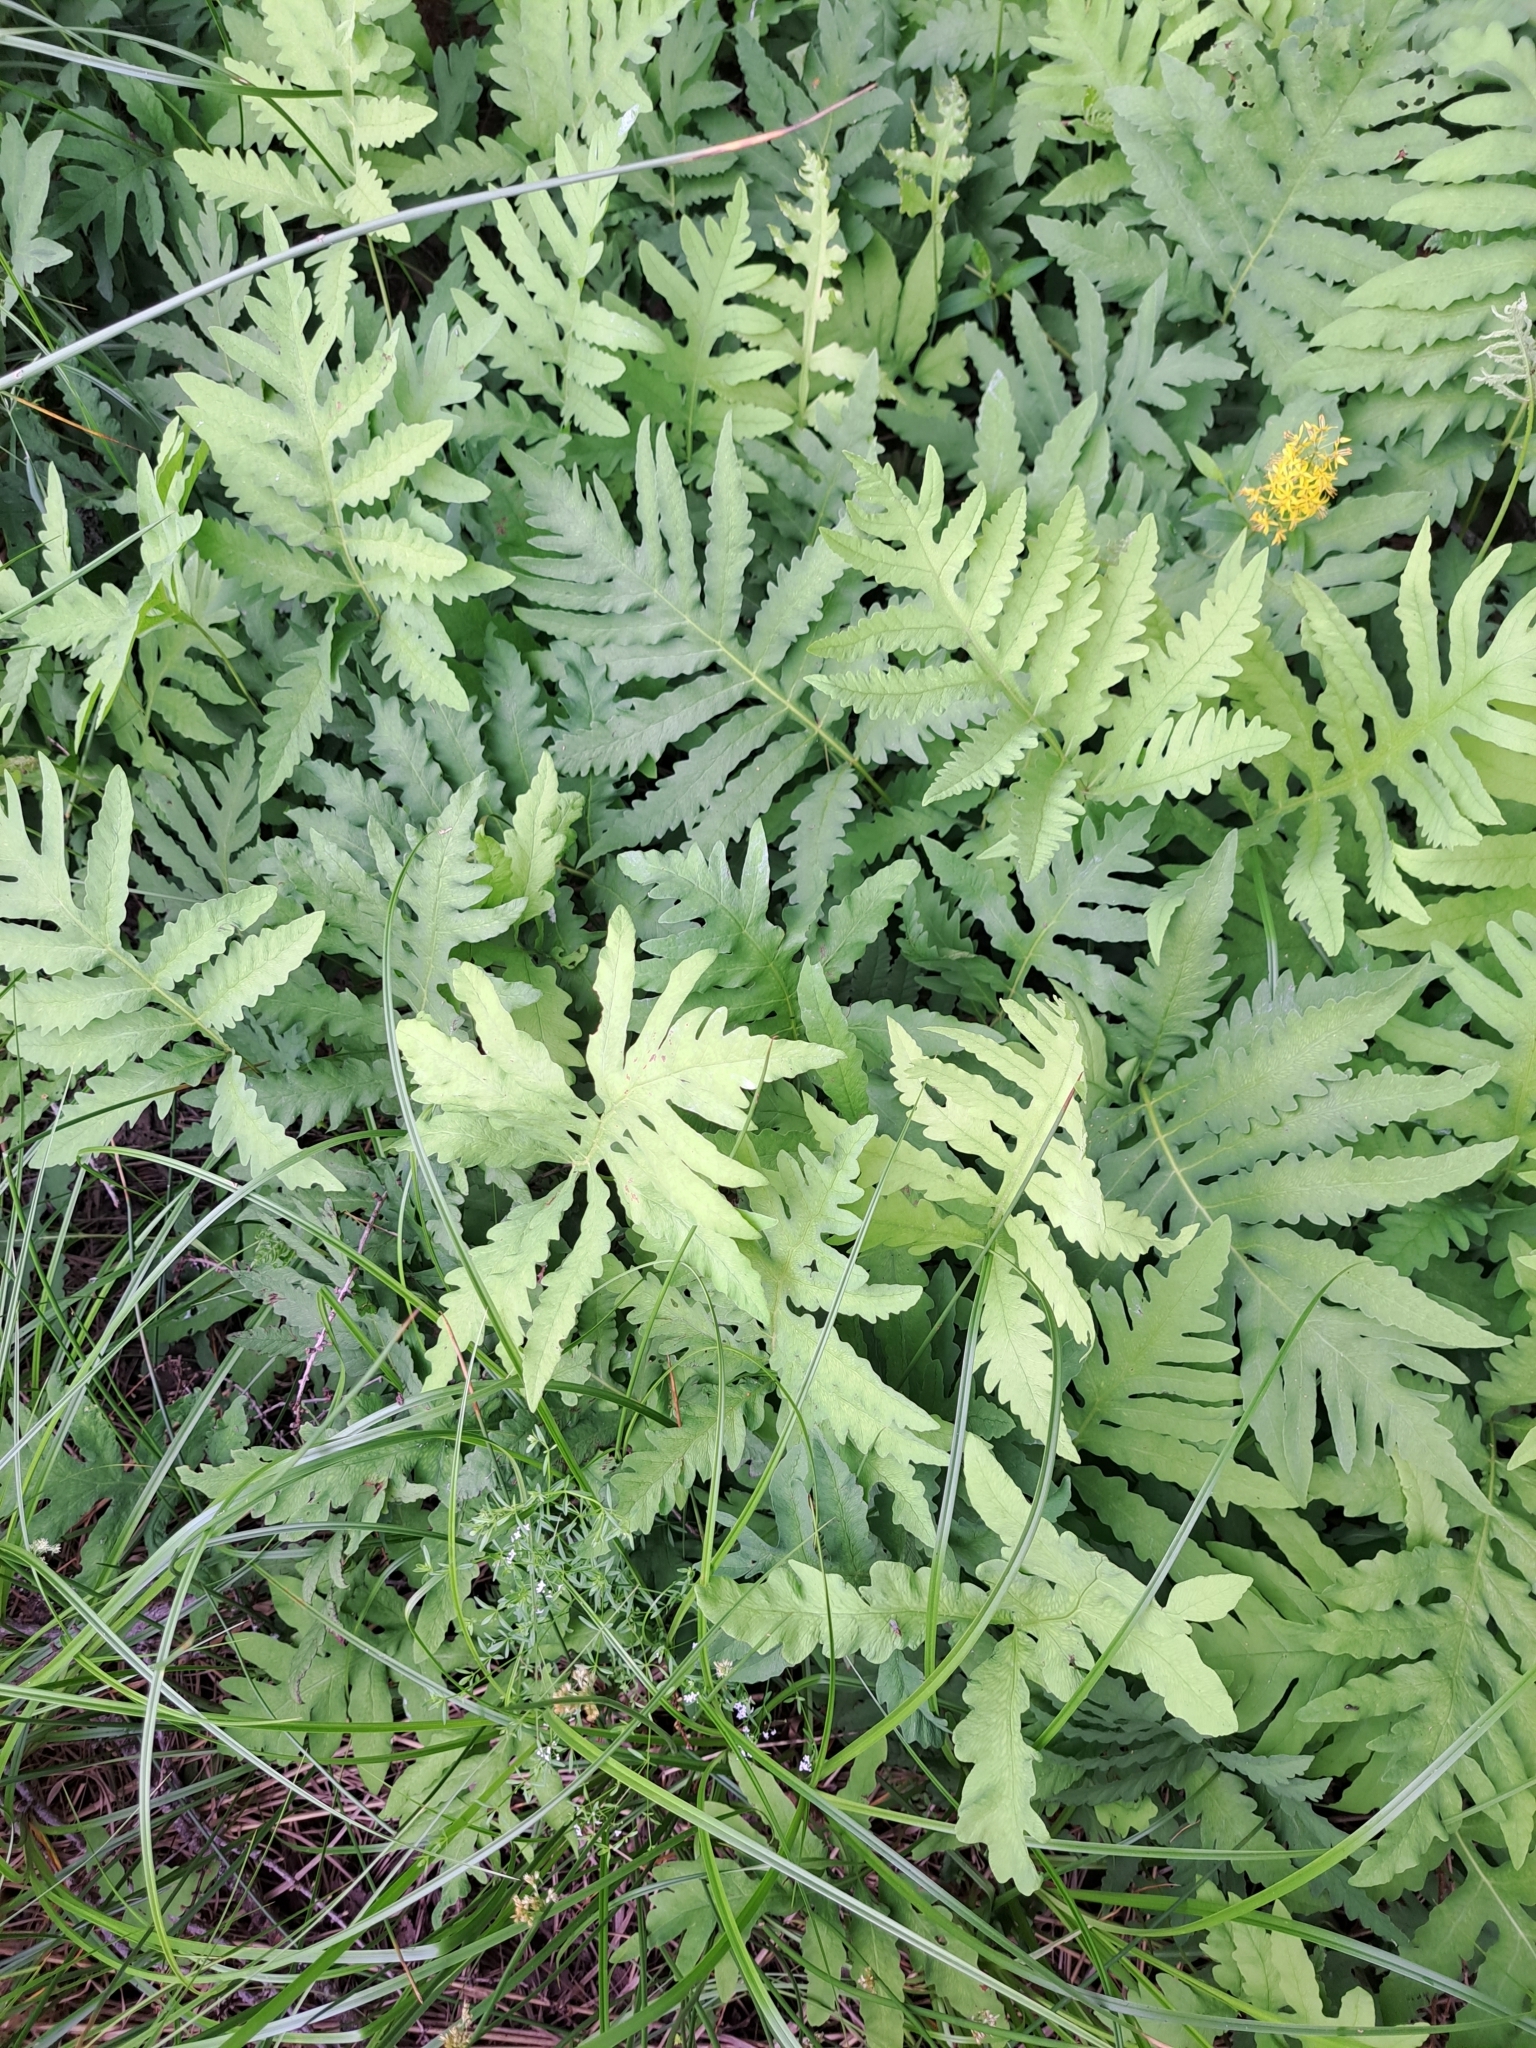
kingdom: Plantae
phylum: Tracheophyta
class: Polypodiopsida
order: Polypodiales
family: Onocleaceae
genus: Onoclea
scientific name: Onoclea sensibilis
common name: Sensitive fern
